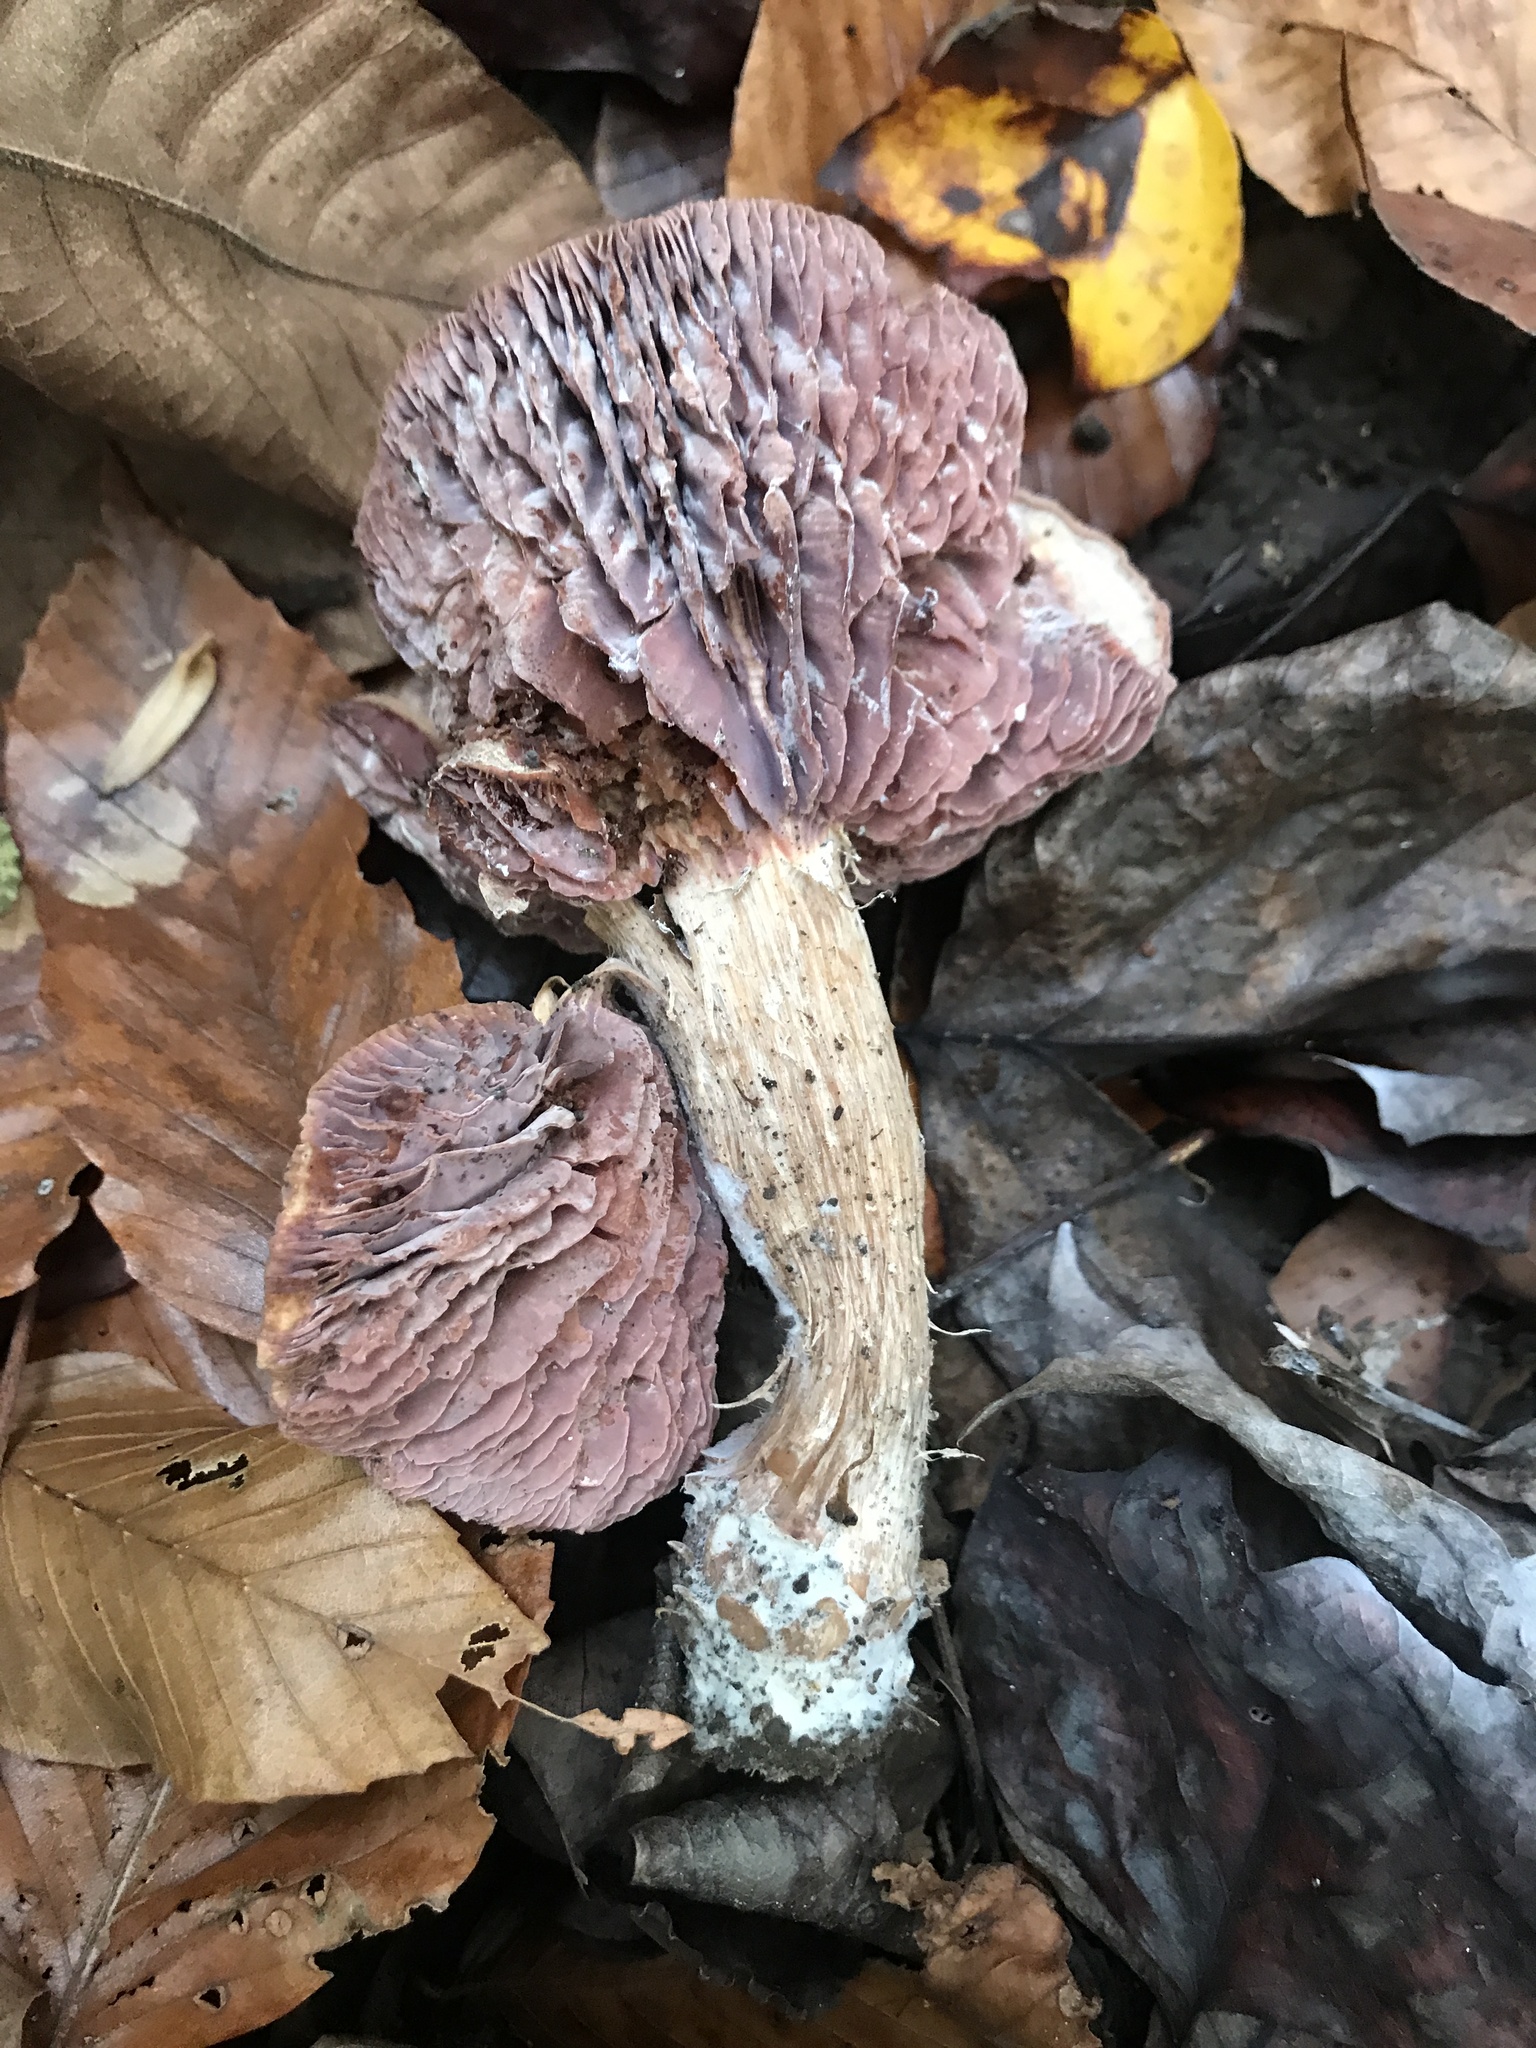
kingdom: Fungi
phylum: Basidiomycota
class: Agaricomycetes
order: Agaricales
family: Hydnangiaceae
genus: Laccaria
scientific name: Laccaria ochropurpurea
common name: Purple laccaria
